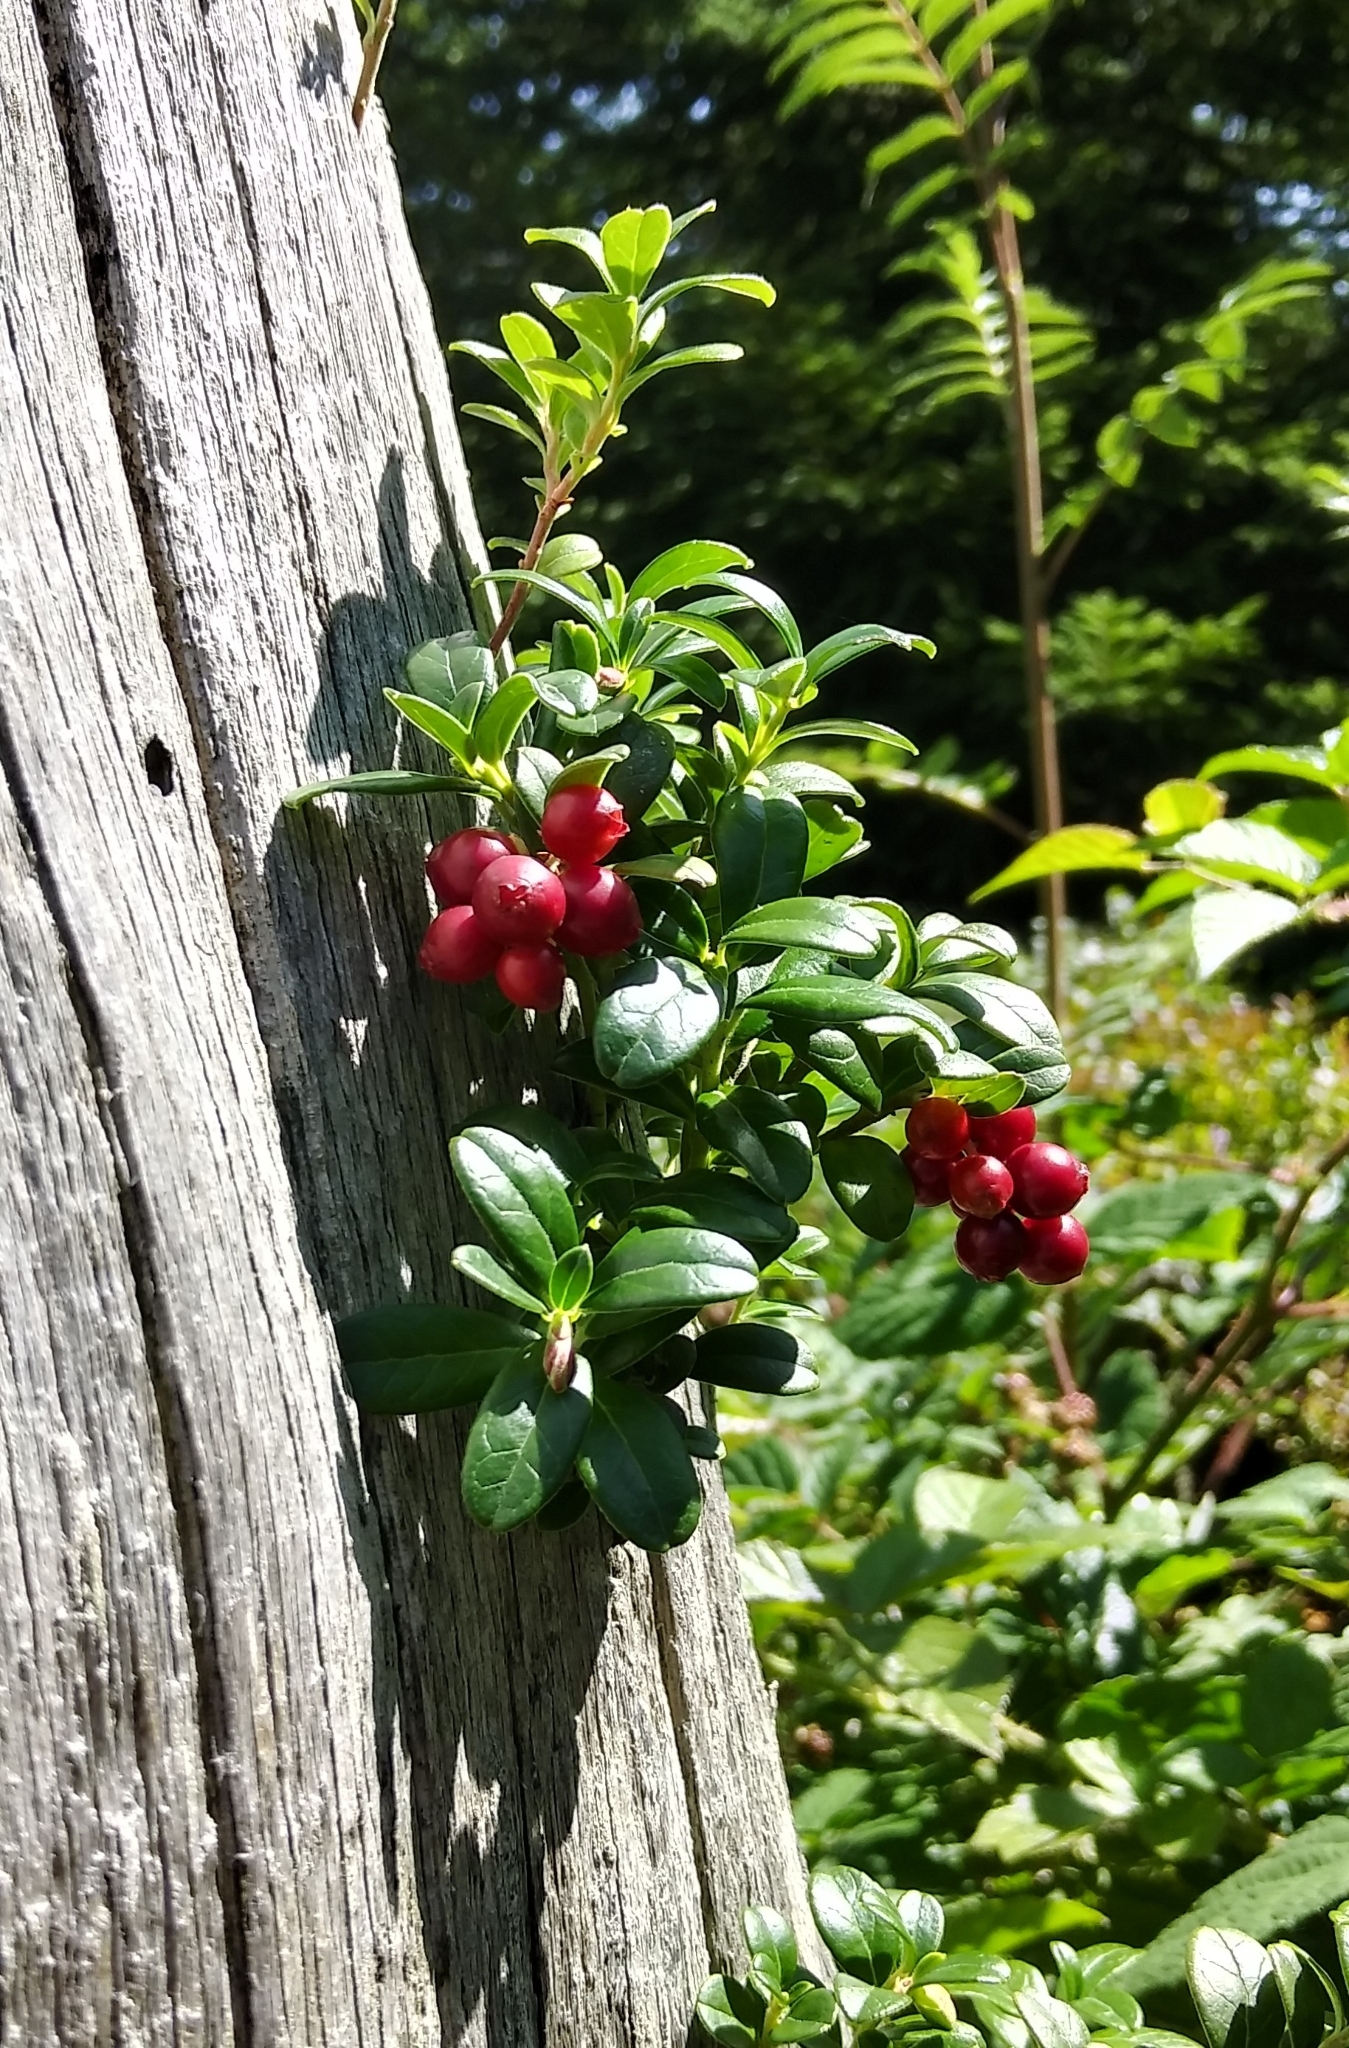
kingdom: Plantae
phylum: Tracheophyta
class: Magnoliopsida
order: Ericales
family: Ericaceae
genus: Vaccinium
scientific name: Vaccinium vitis-idaea
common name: Cowberry
